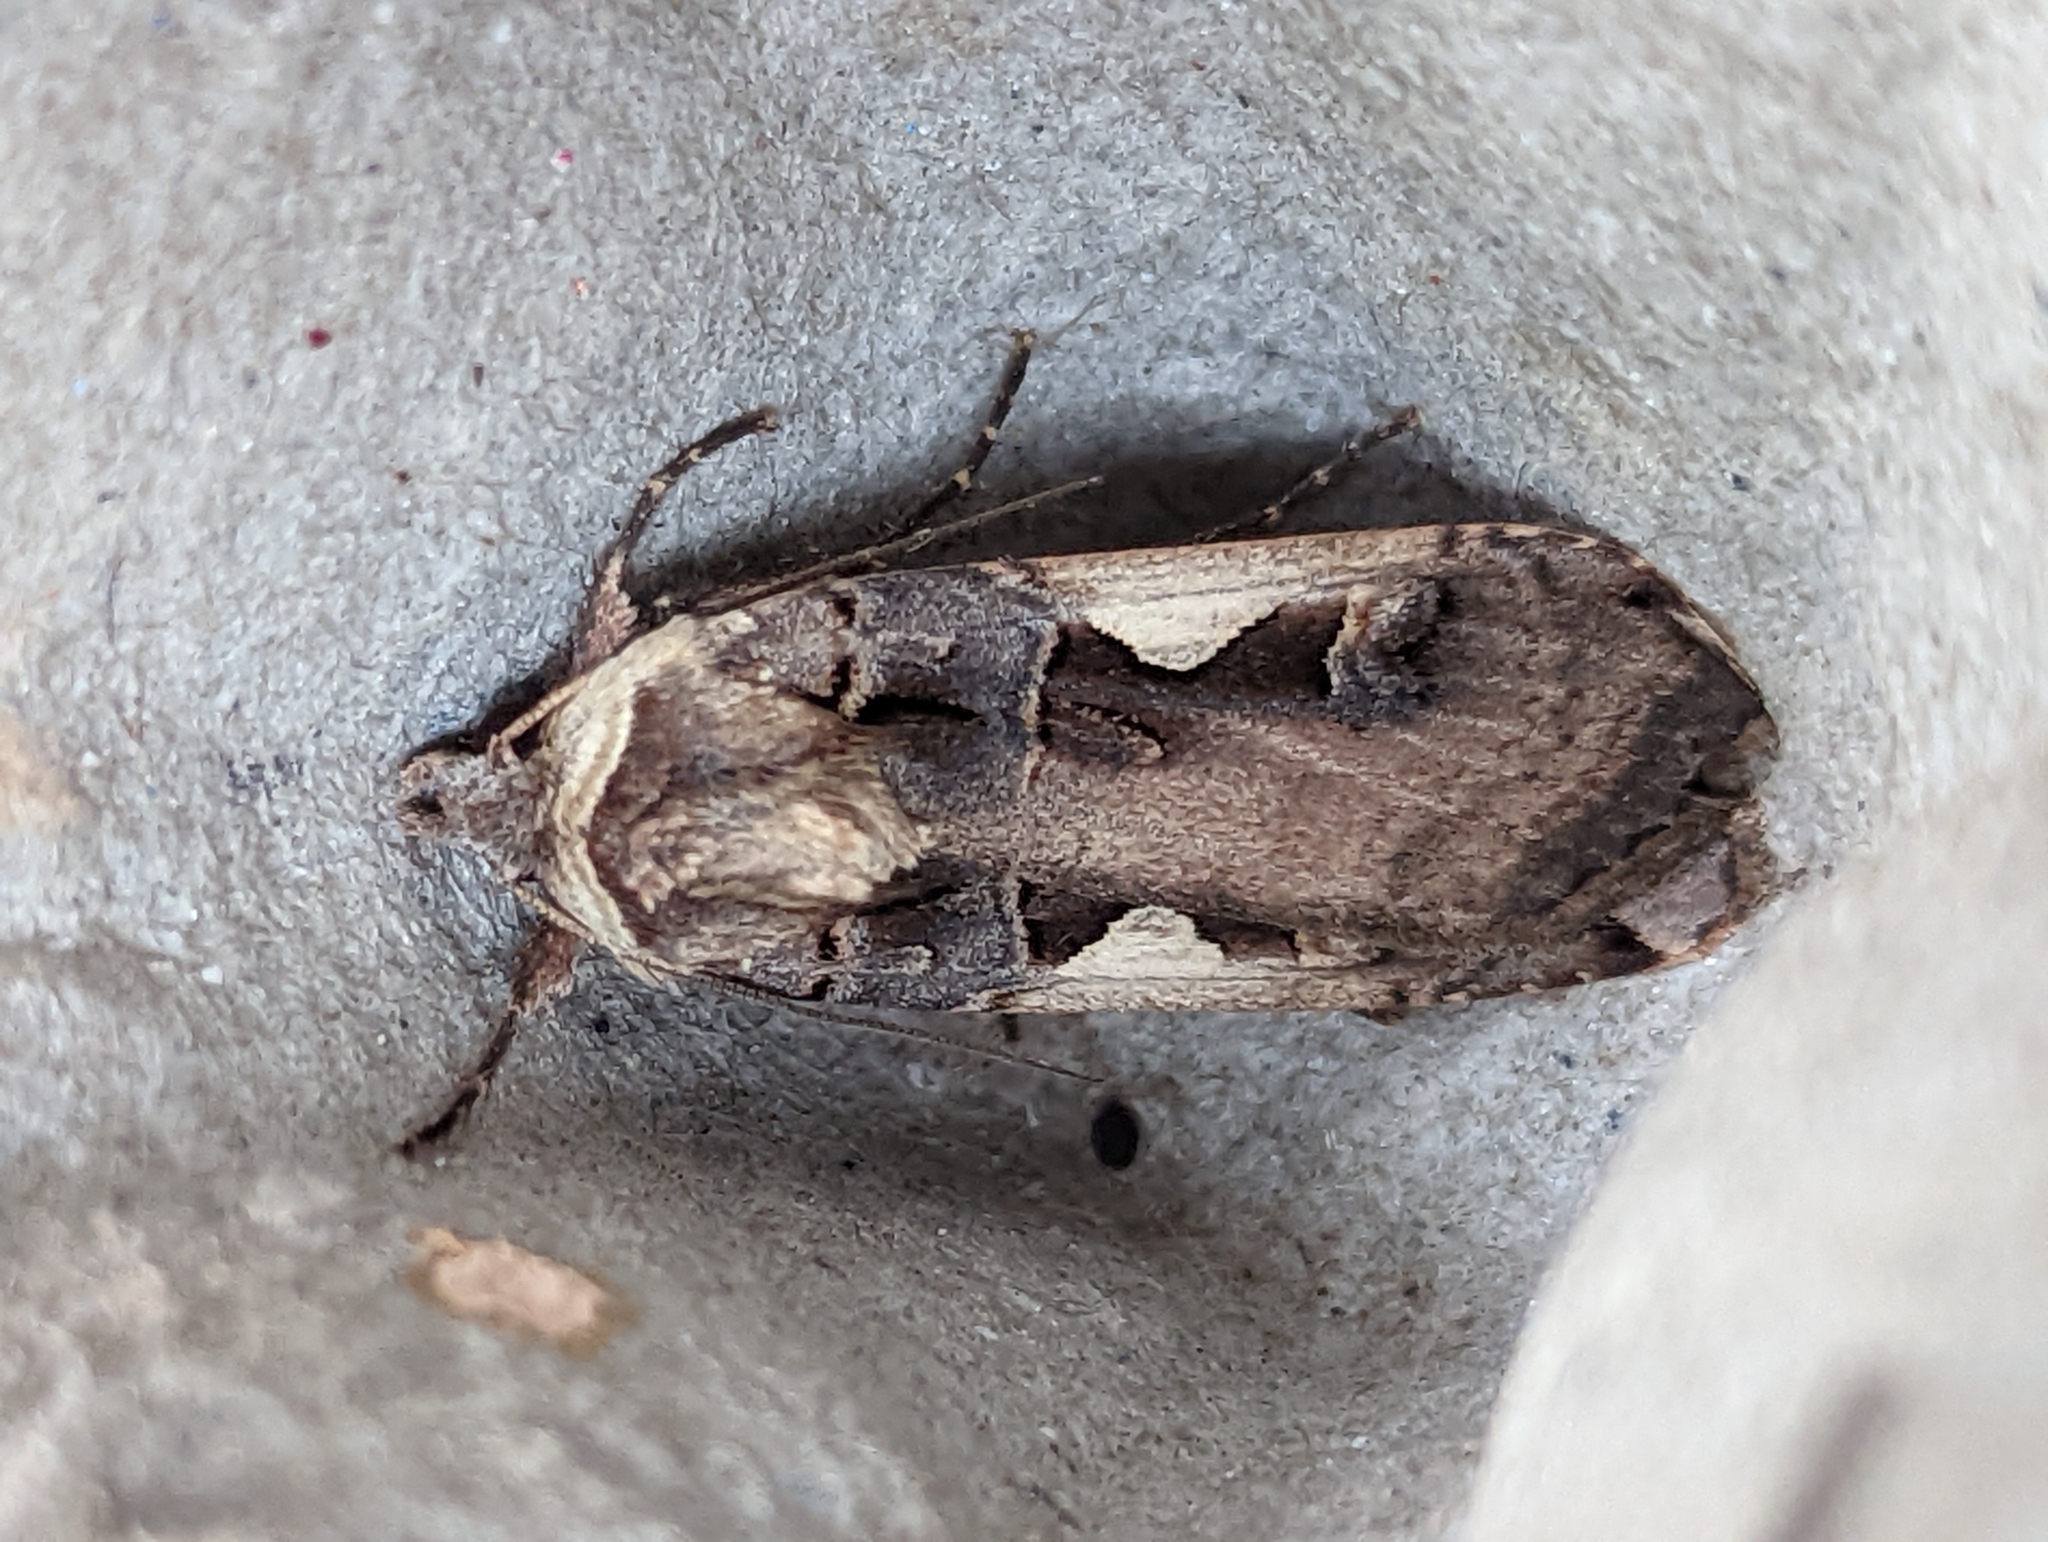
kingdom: Animalia
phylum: Arthropoda
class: Insecta
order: Lepidoptera
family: Noctuidae
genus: Xestia
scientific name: Xestia c-nigrum
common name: Setaceous hebrew character
